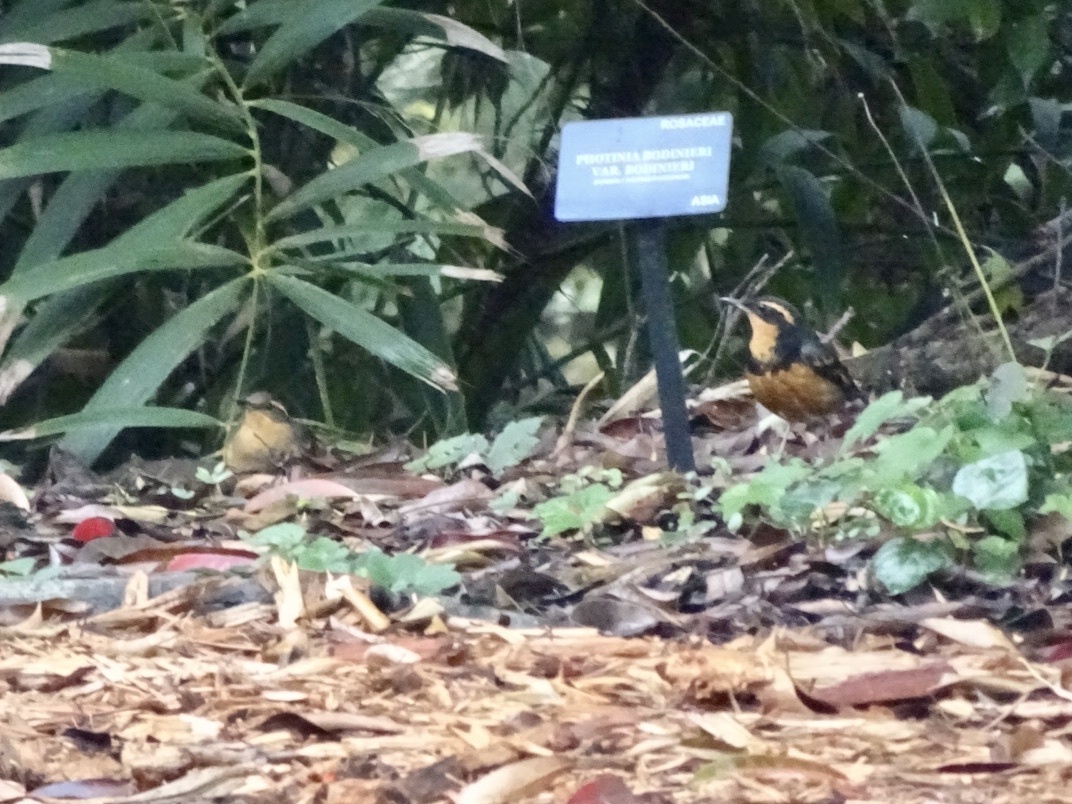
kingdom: Animalia
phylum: Chordata
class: Aves
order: Passeriformes
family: Turdidae
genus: Ixoreus
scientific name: Ixoreus naevius
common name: Varied thrush
